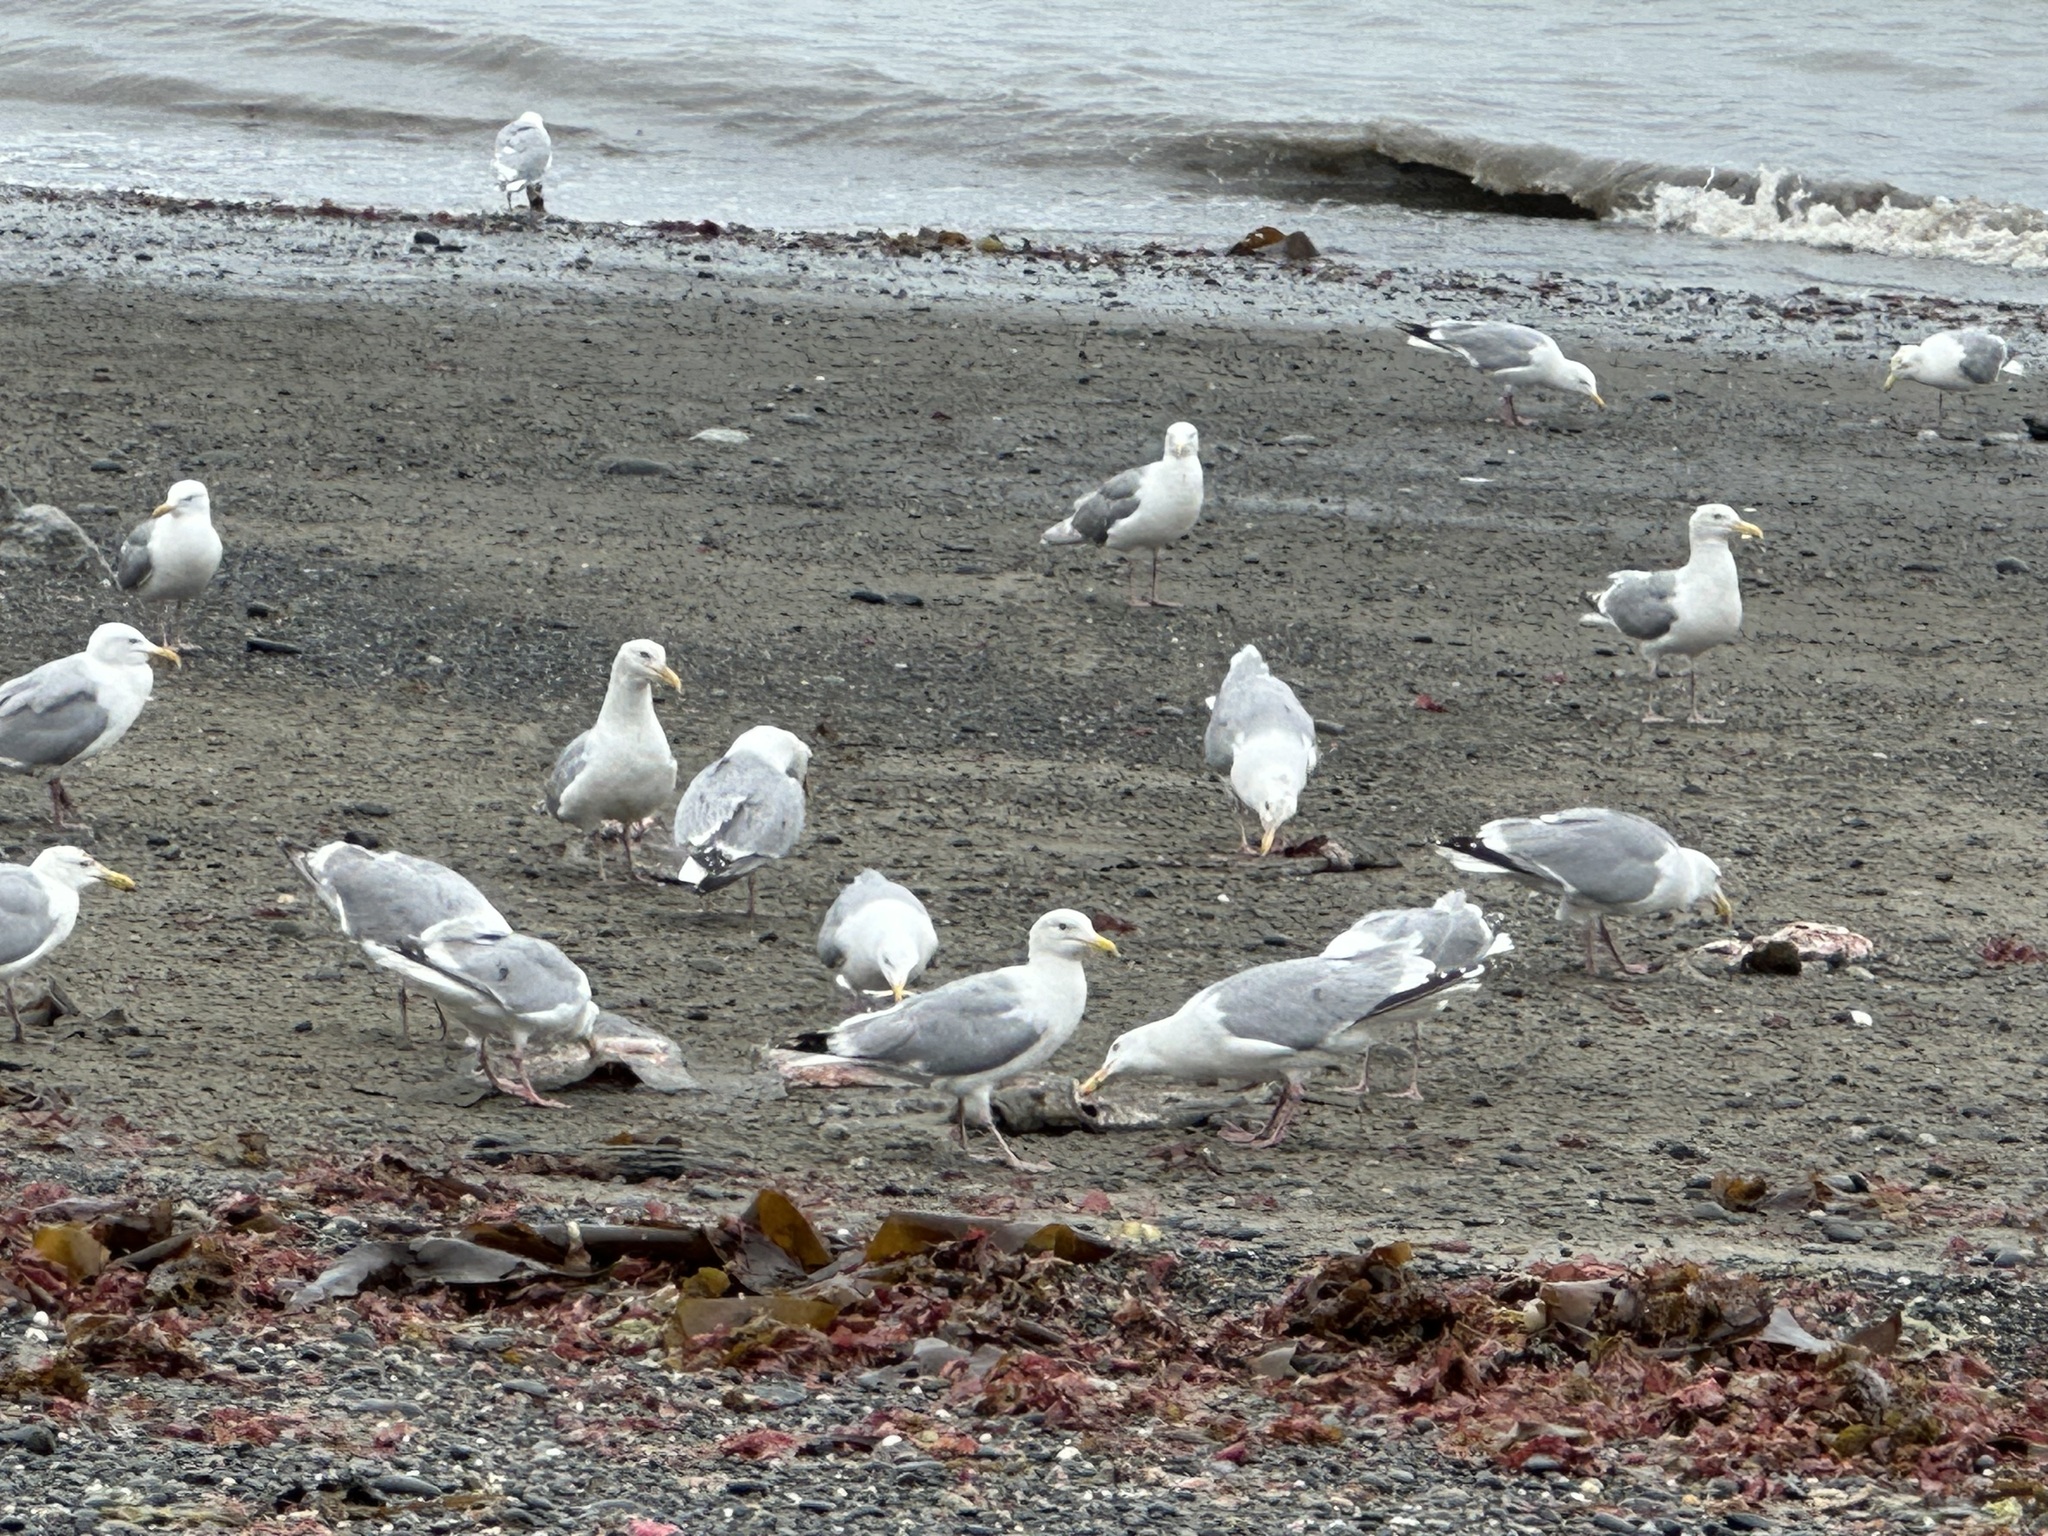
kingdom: Animalia
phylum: Chordata
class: Aves
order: Charadriiformes
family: Laridae
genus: Larus
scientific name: Larus
